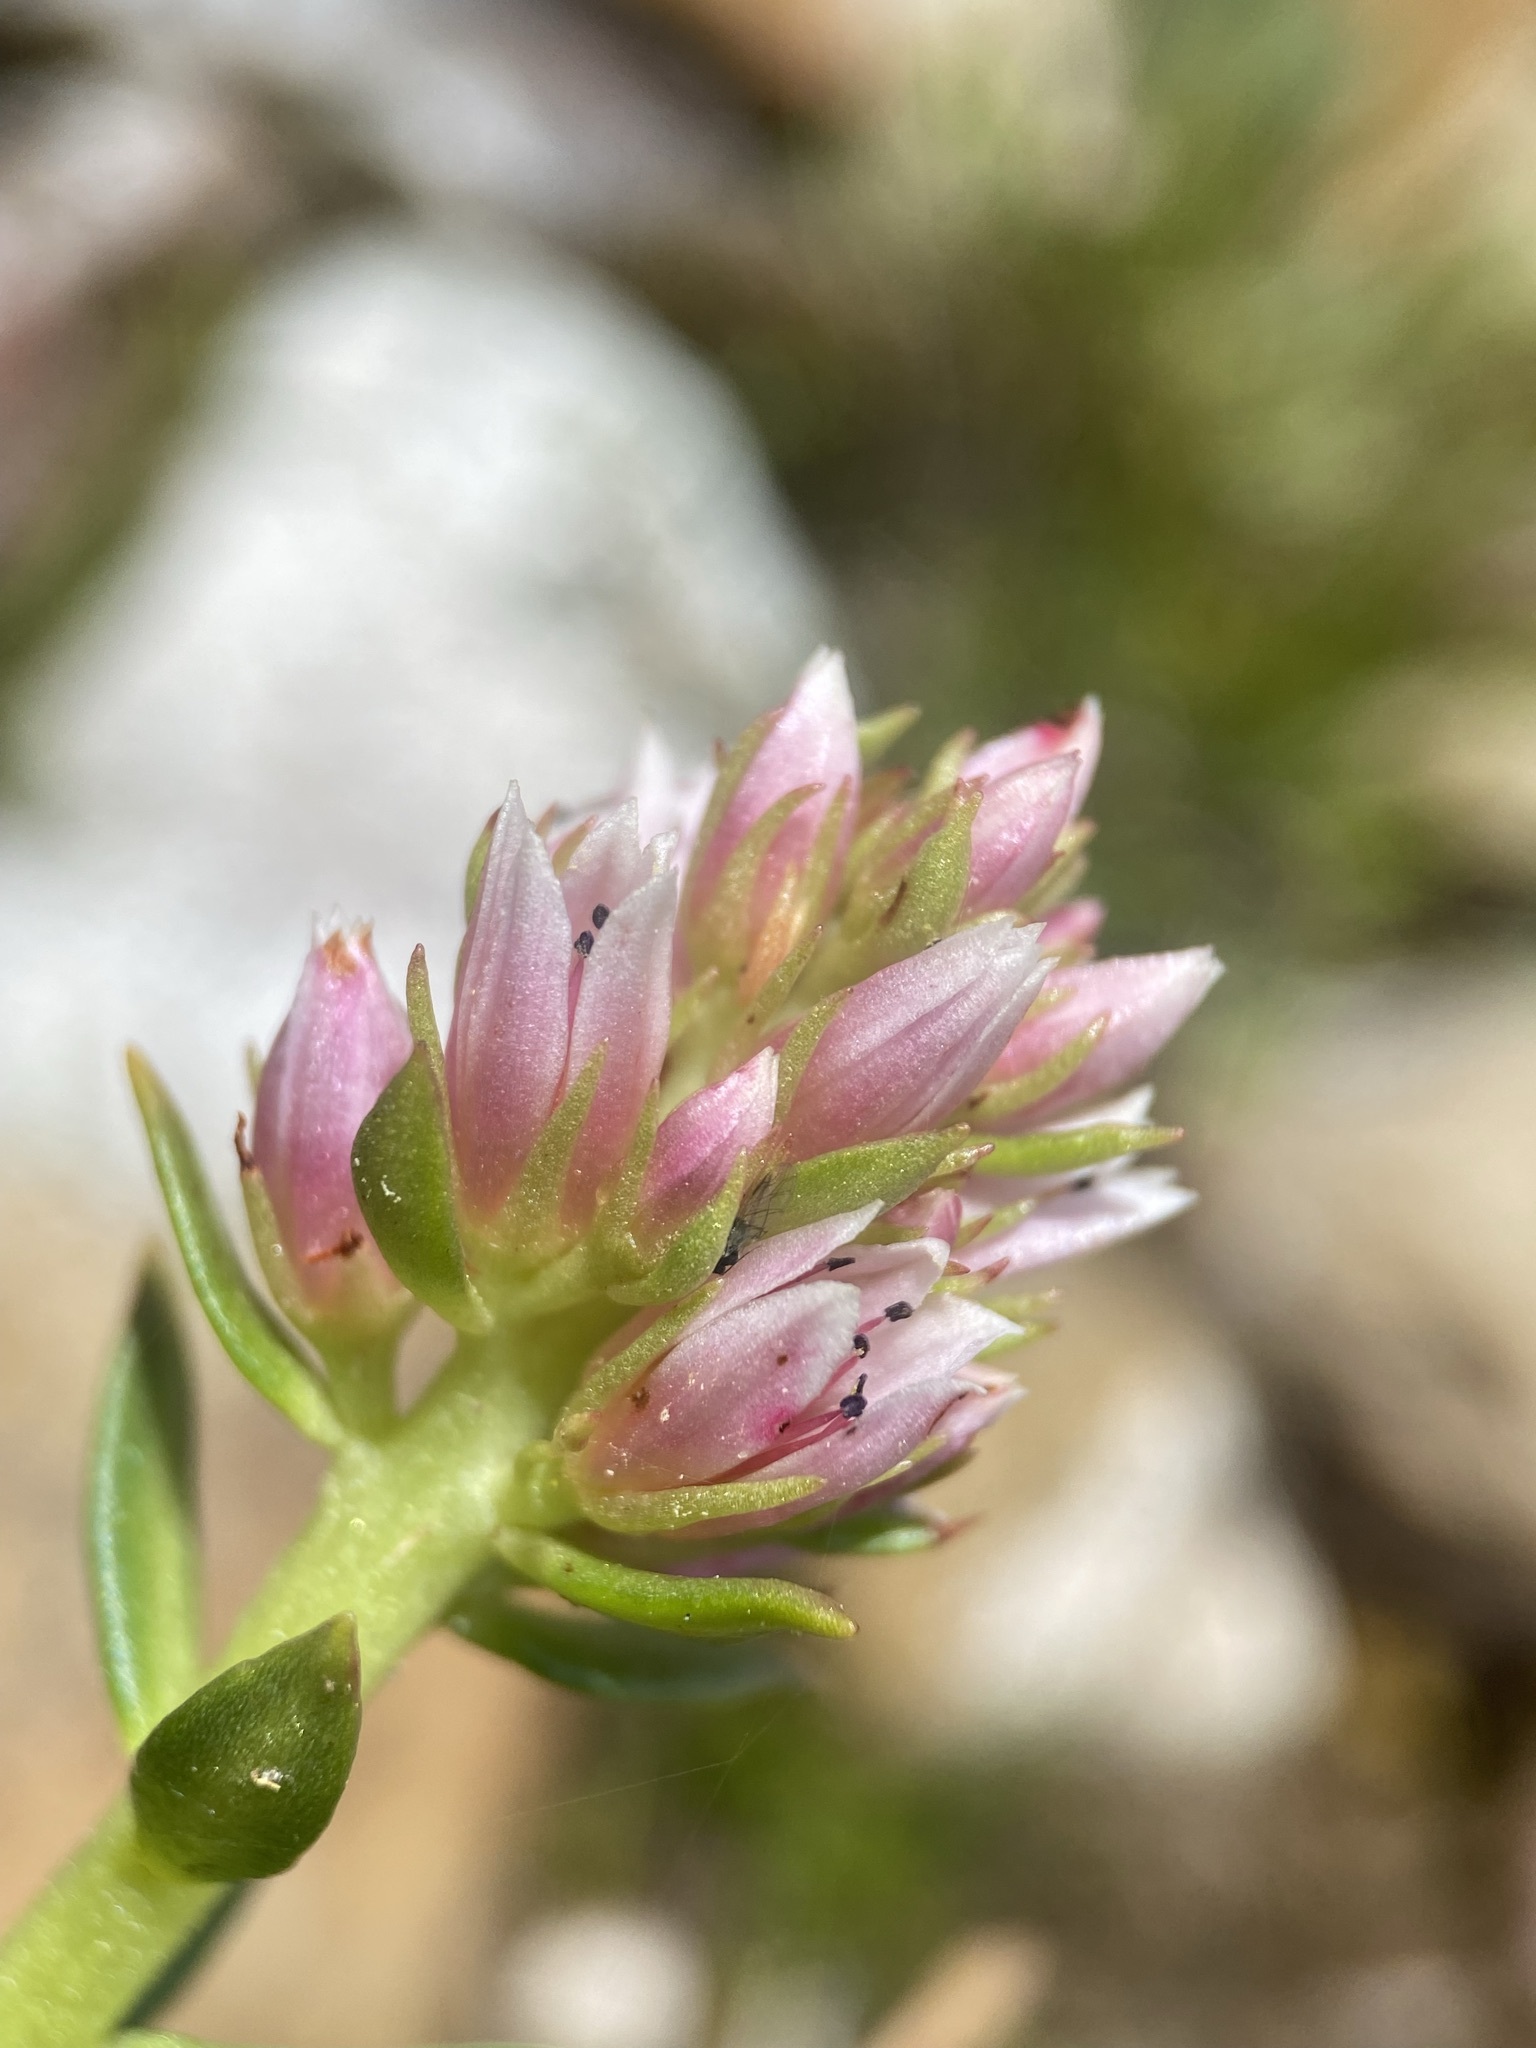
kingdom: Plantae
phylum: Tracheophyta
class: Magnoliopsida
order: Saxifragales
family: Crassulaceae
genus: Rhodiola
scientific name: Rhodiola rhodantha
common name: Red orpine
